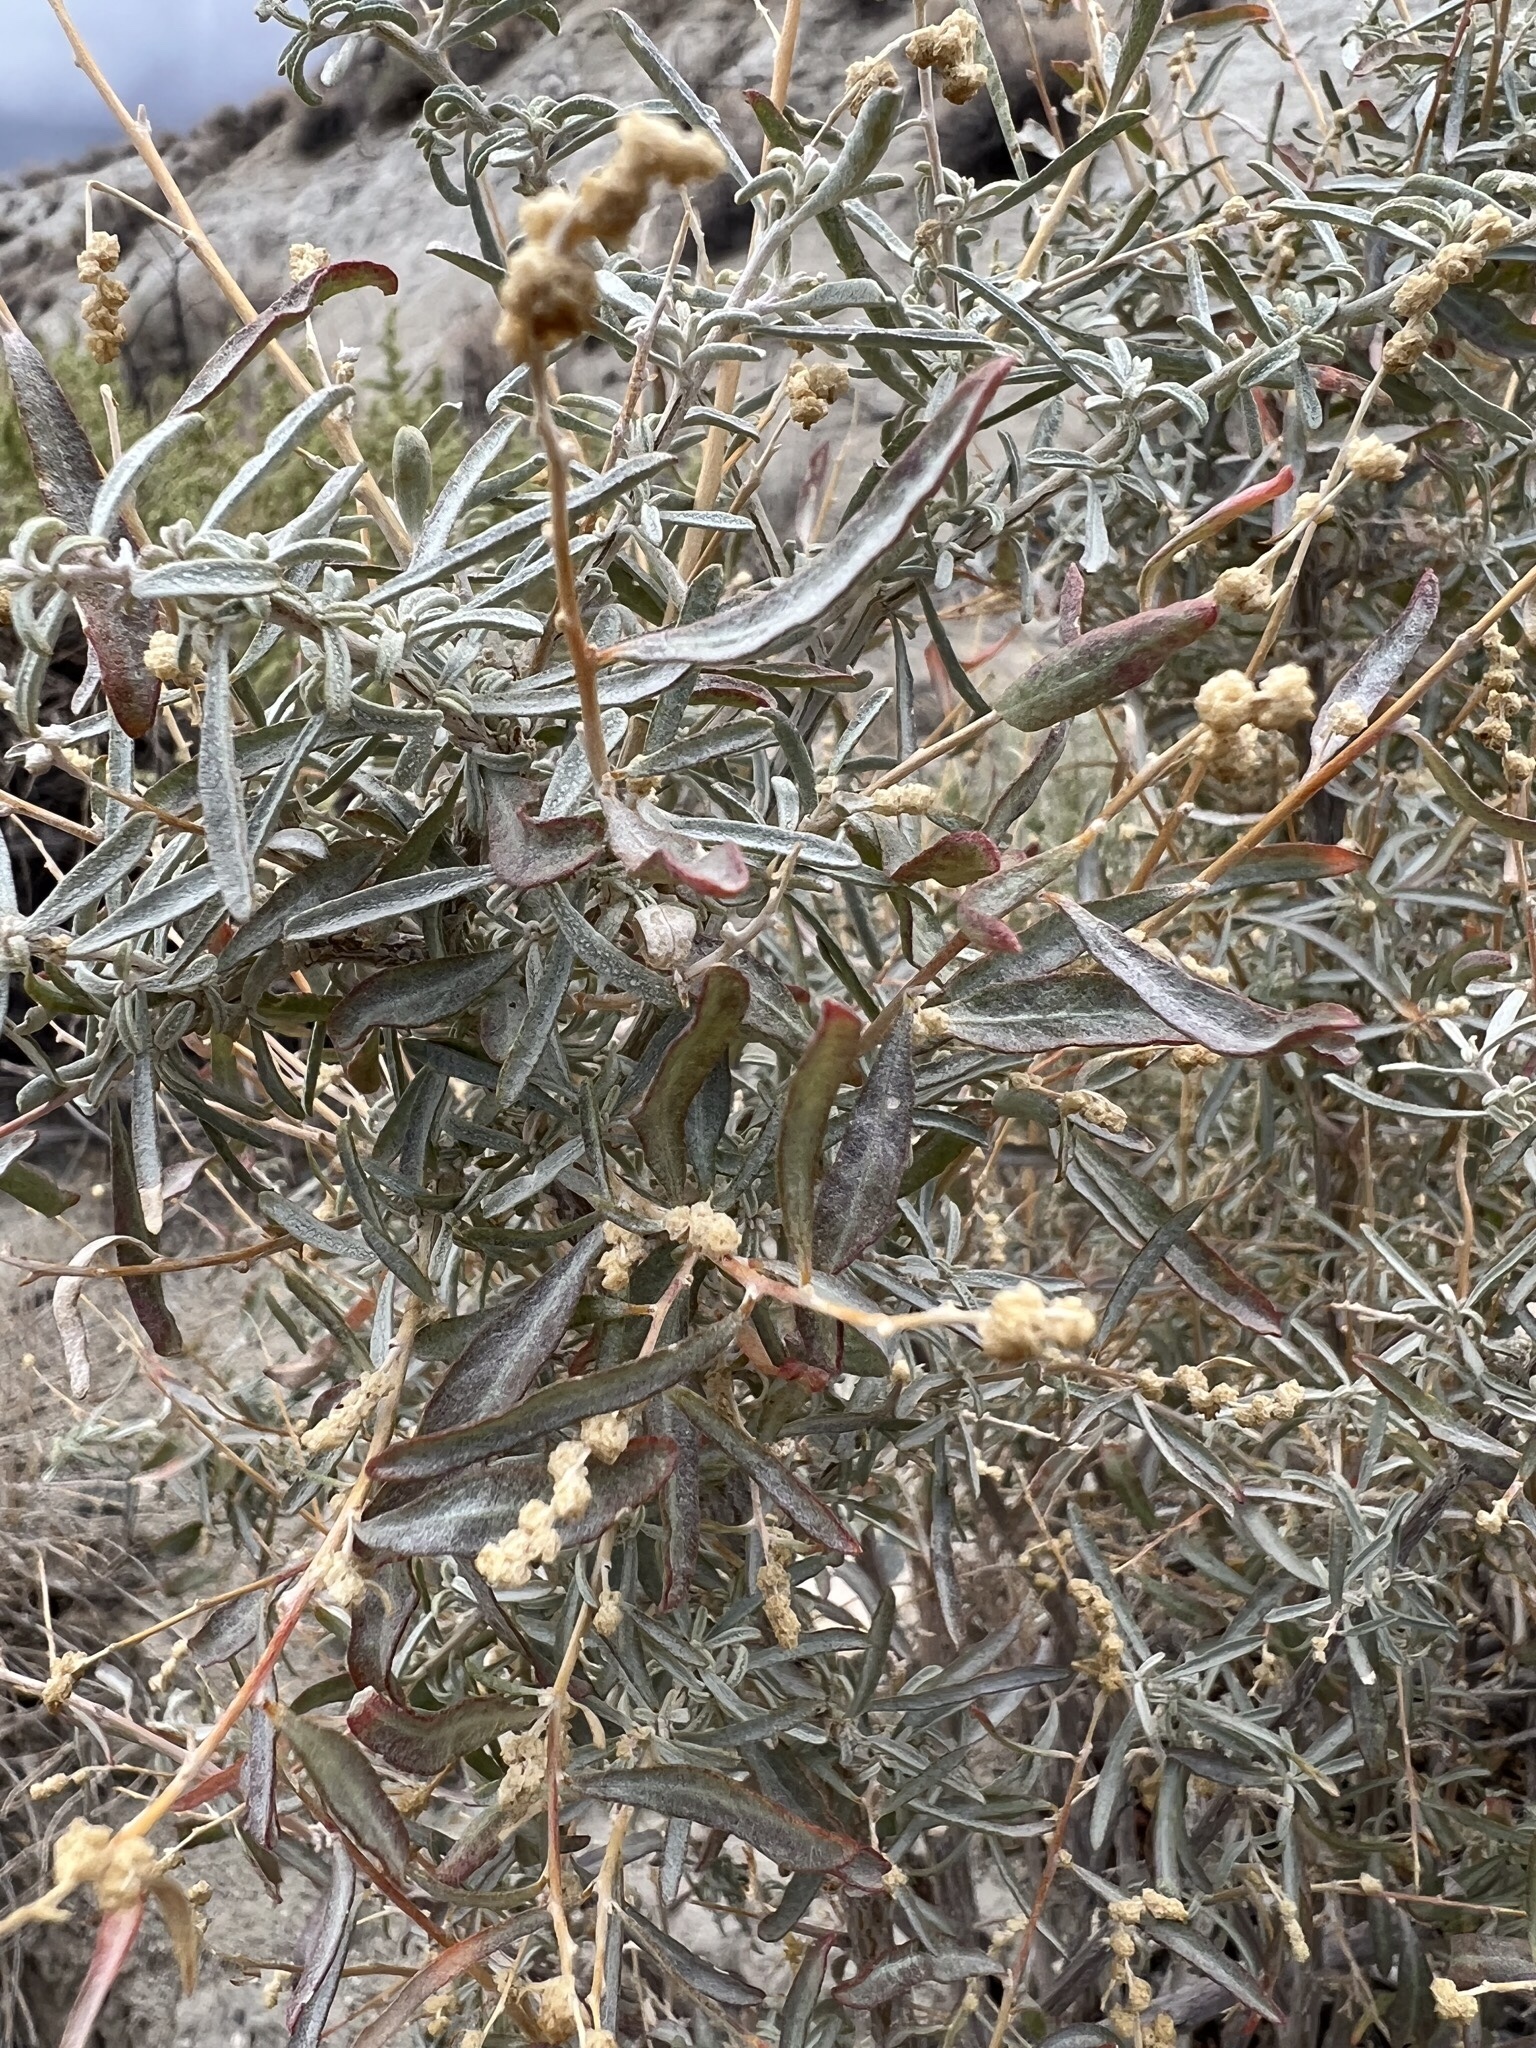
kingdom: Plantae
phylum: Tracheophyta
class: Magnoliopsida
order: Caryophyllales
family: Amaranthaceae
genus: Atriplex
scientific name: Atriplex canescens
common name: Four-wing saltbush
